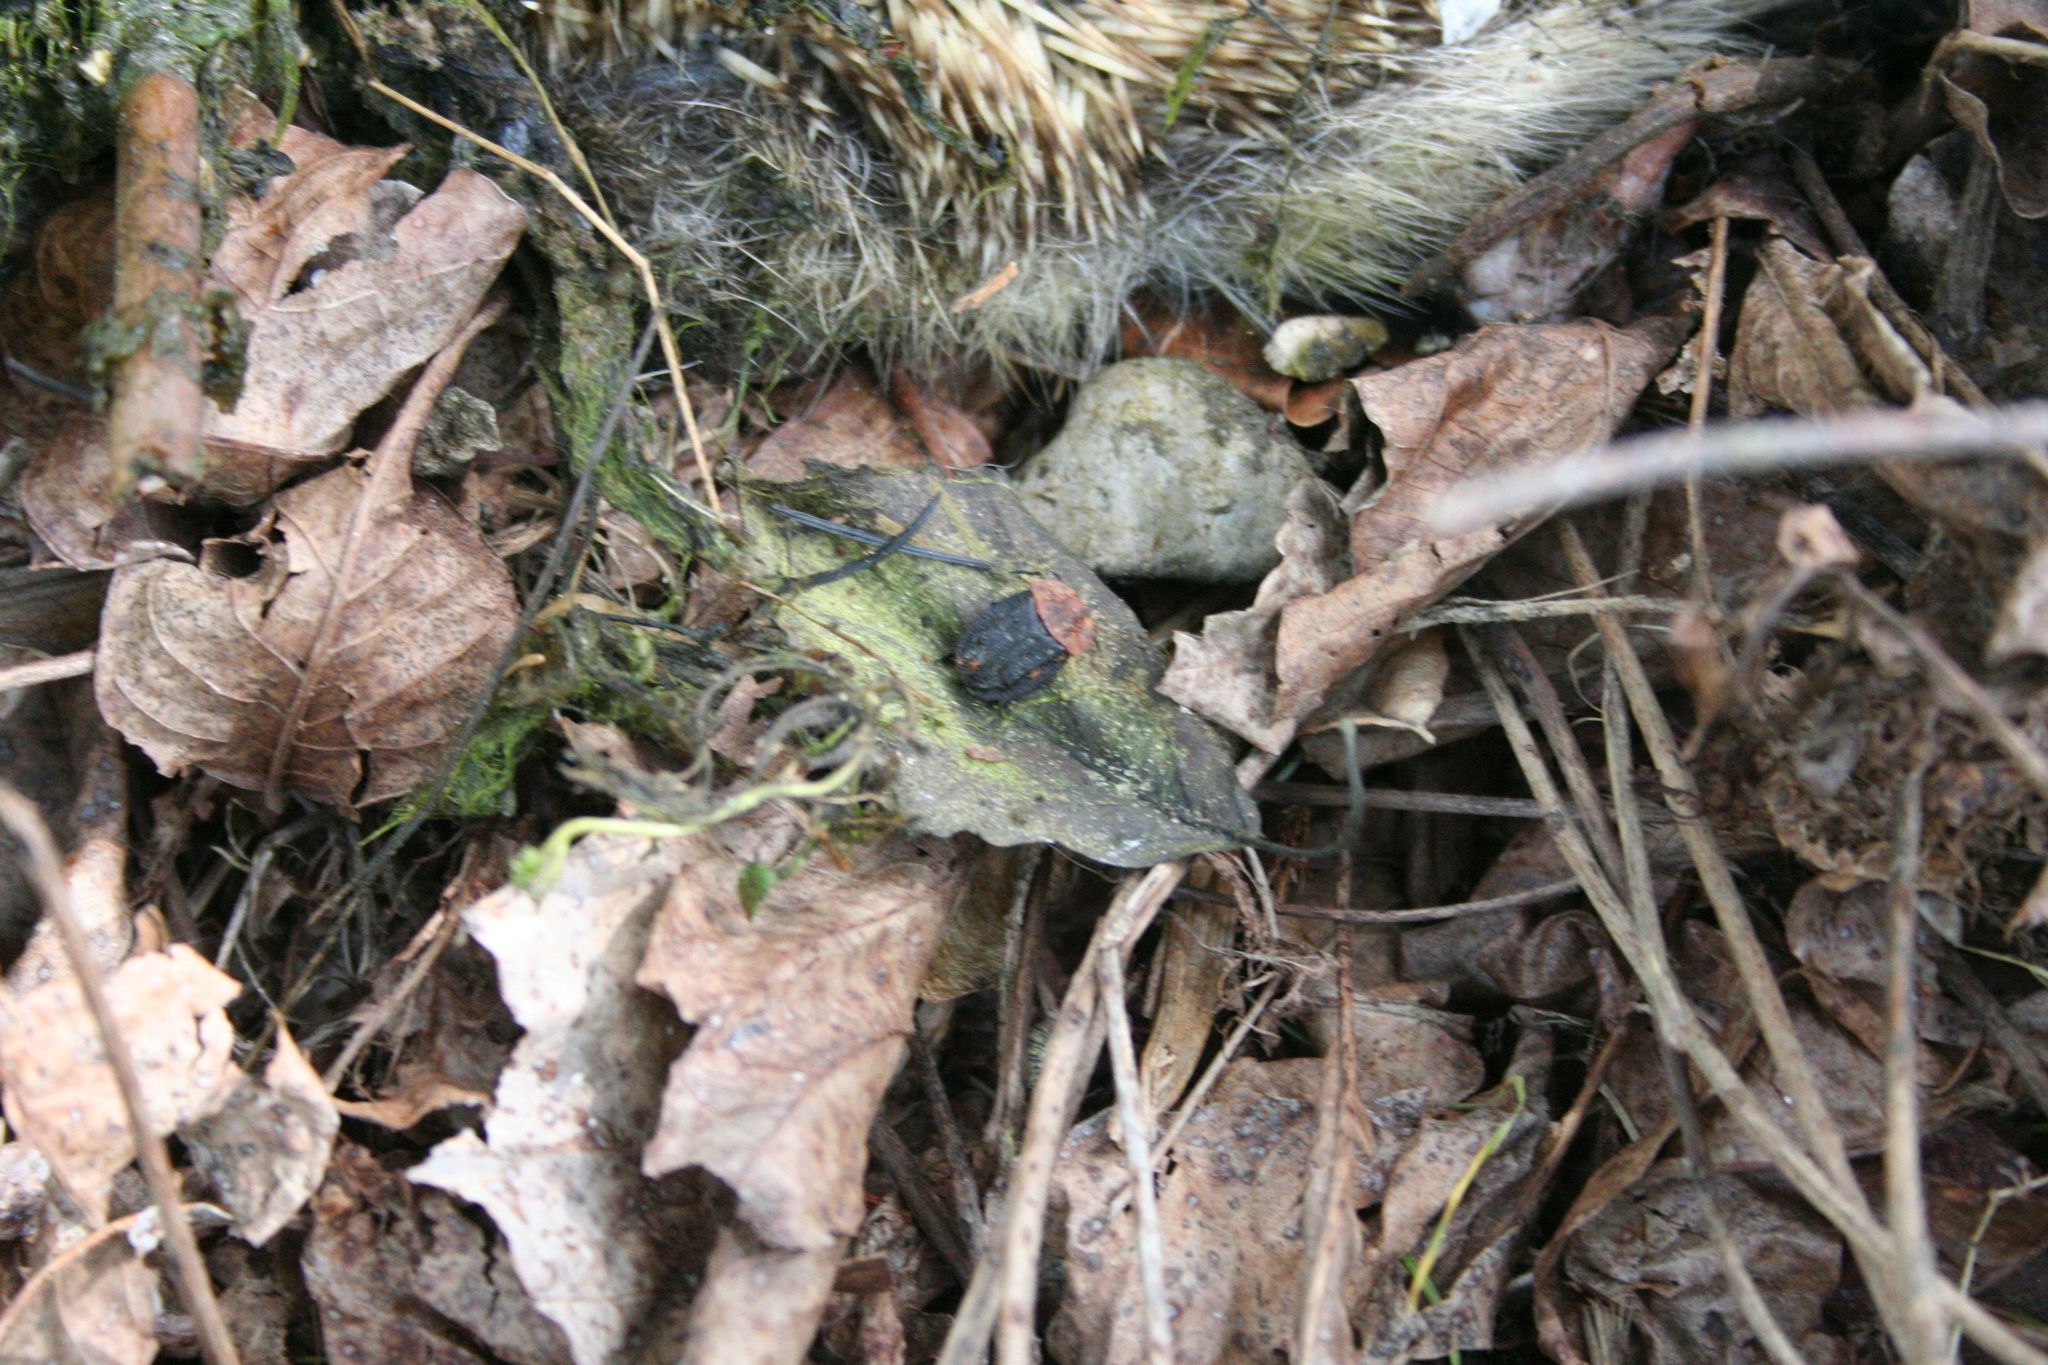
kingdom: Animalia
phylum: Arthropoda
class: Insecta
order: Coleoptera
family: Staphylinidae
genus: Oiceoptoma
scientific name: Oiceoptoma thoracicum
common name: Red-breasted carrion beetle
